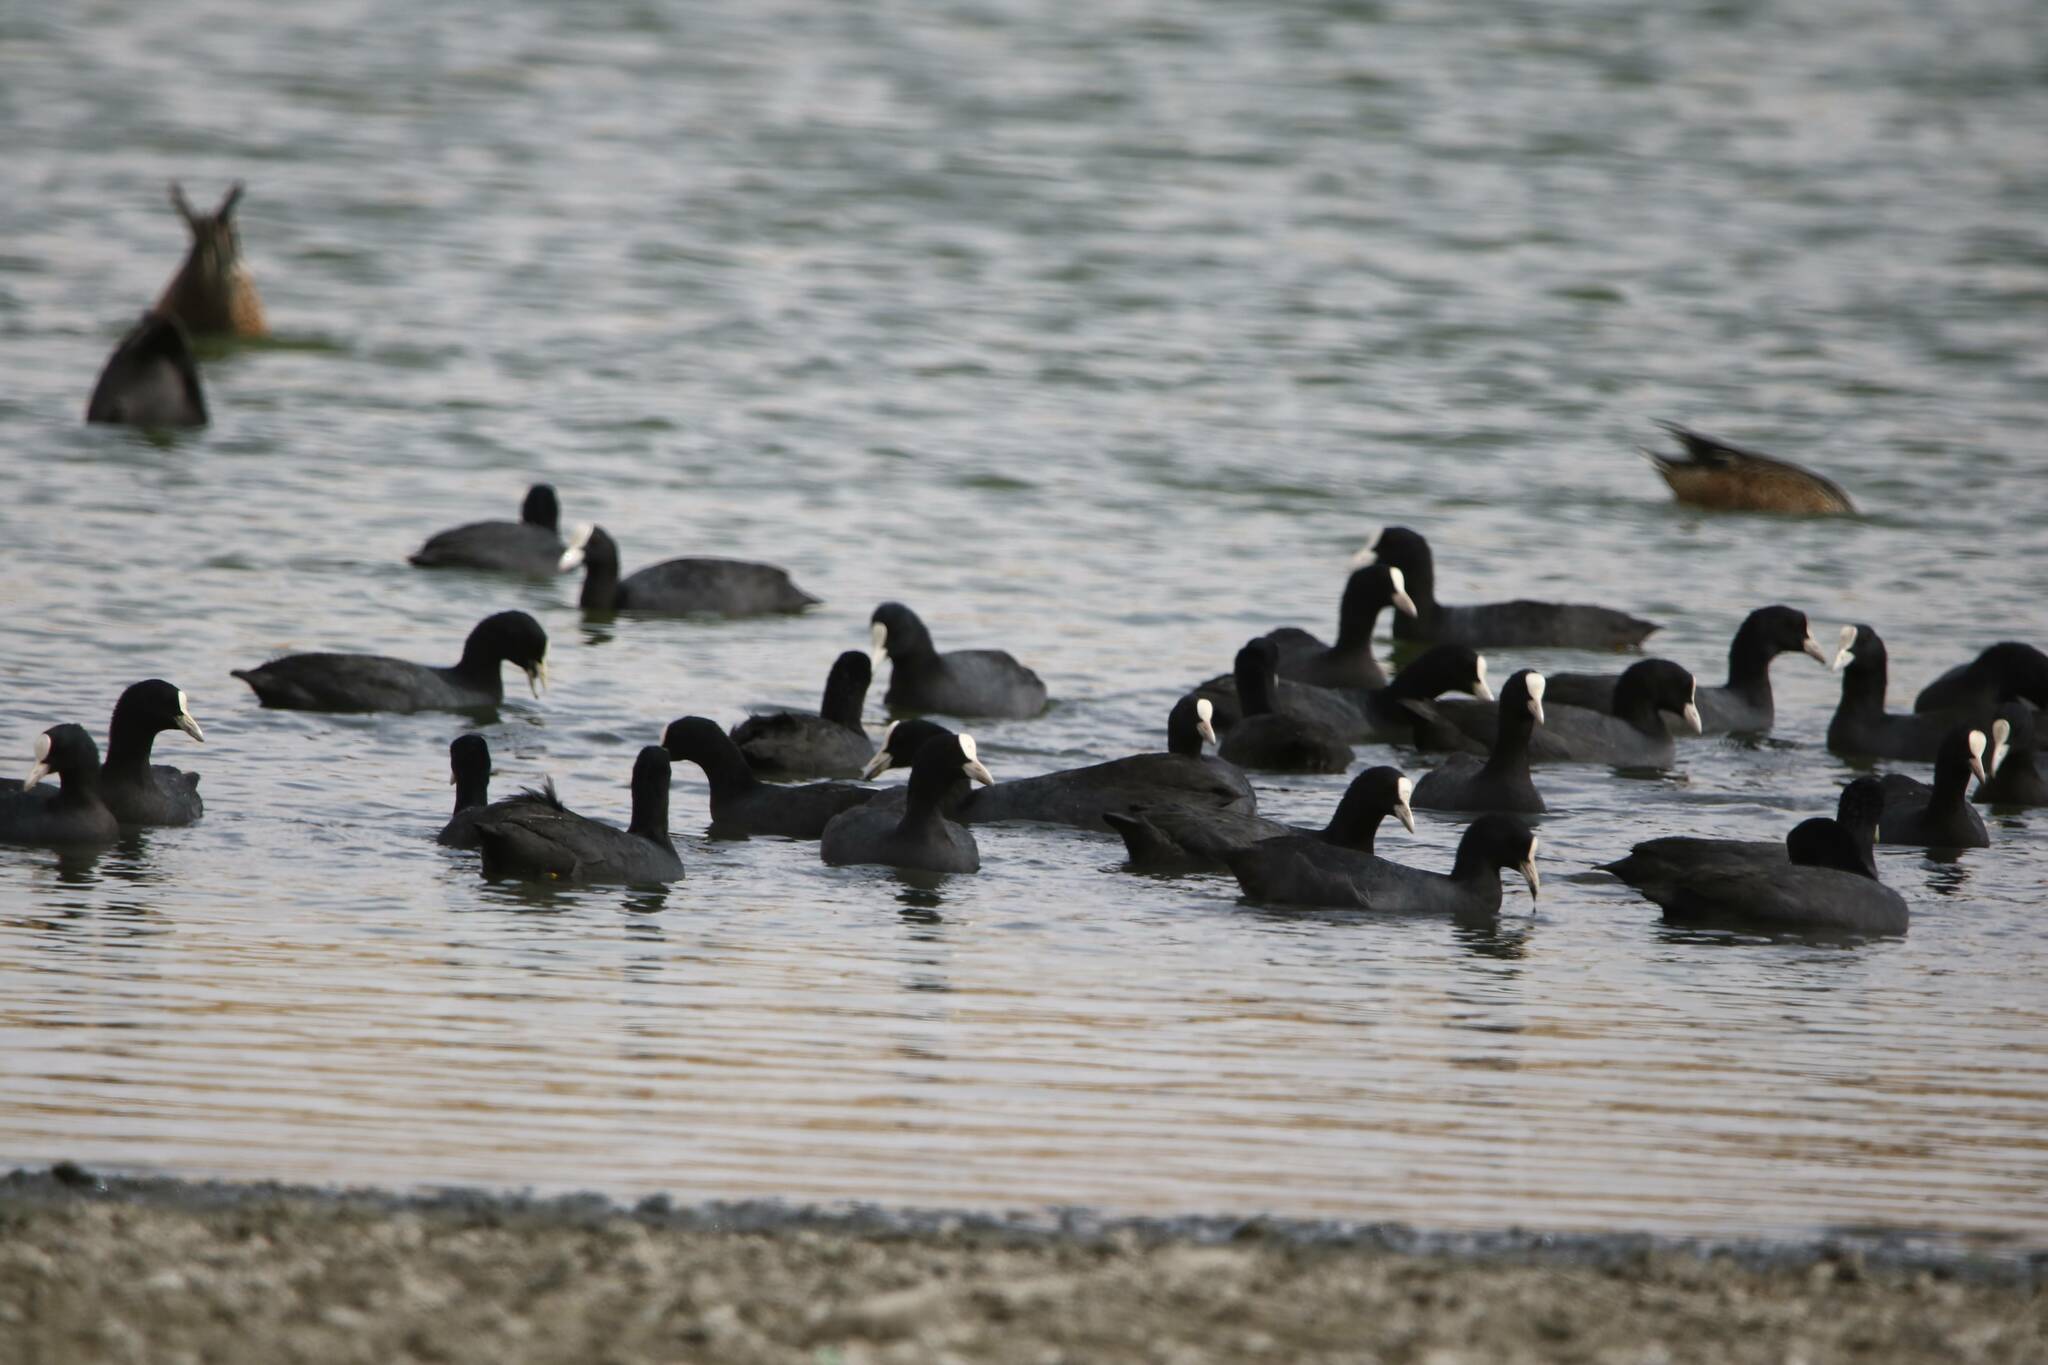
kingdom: Animalia
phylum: Chordata
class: Aves
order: Gruiformes
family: Rallidae
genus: Fulica
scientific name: Fulica atra
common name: Eurasian coot
